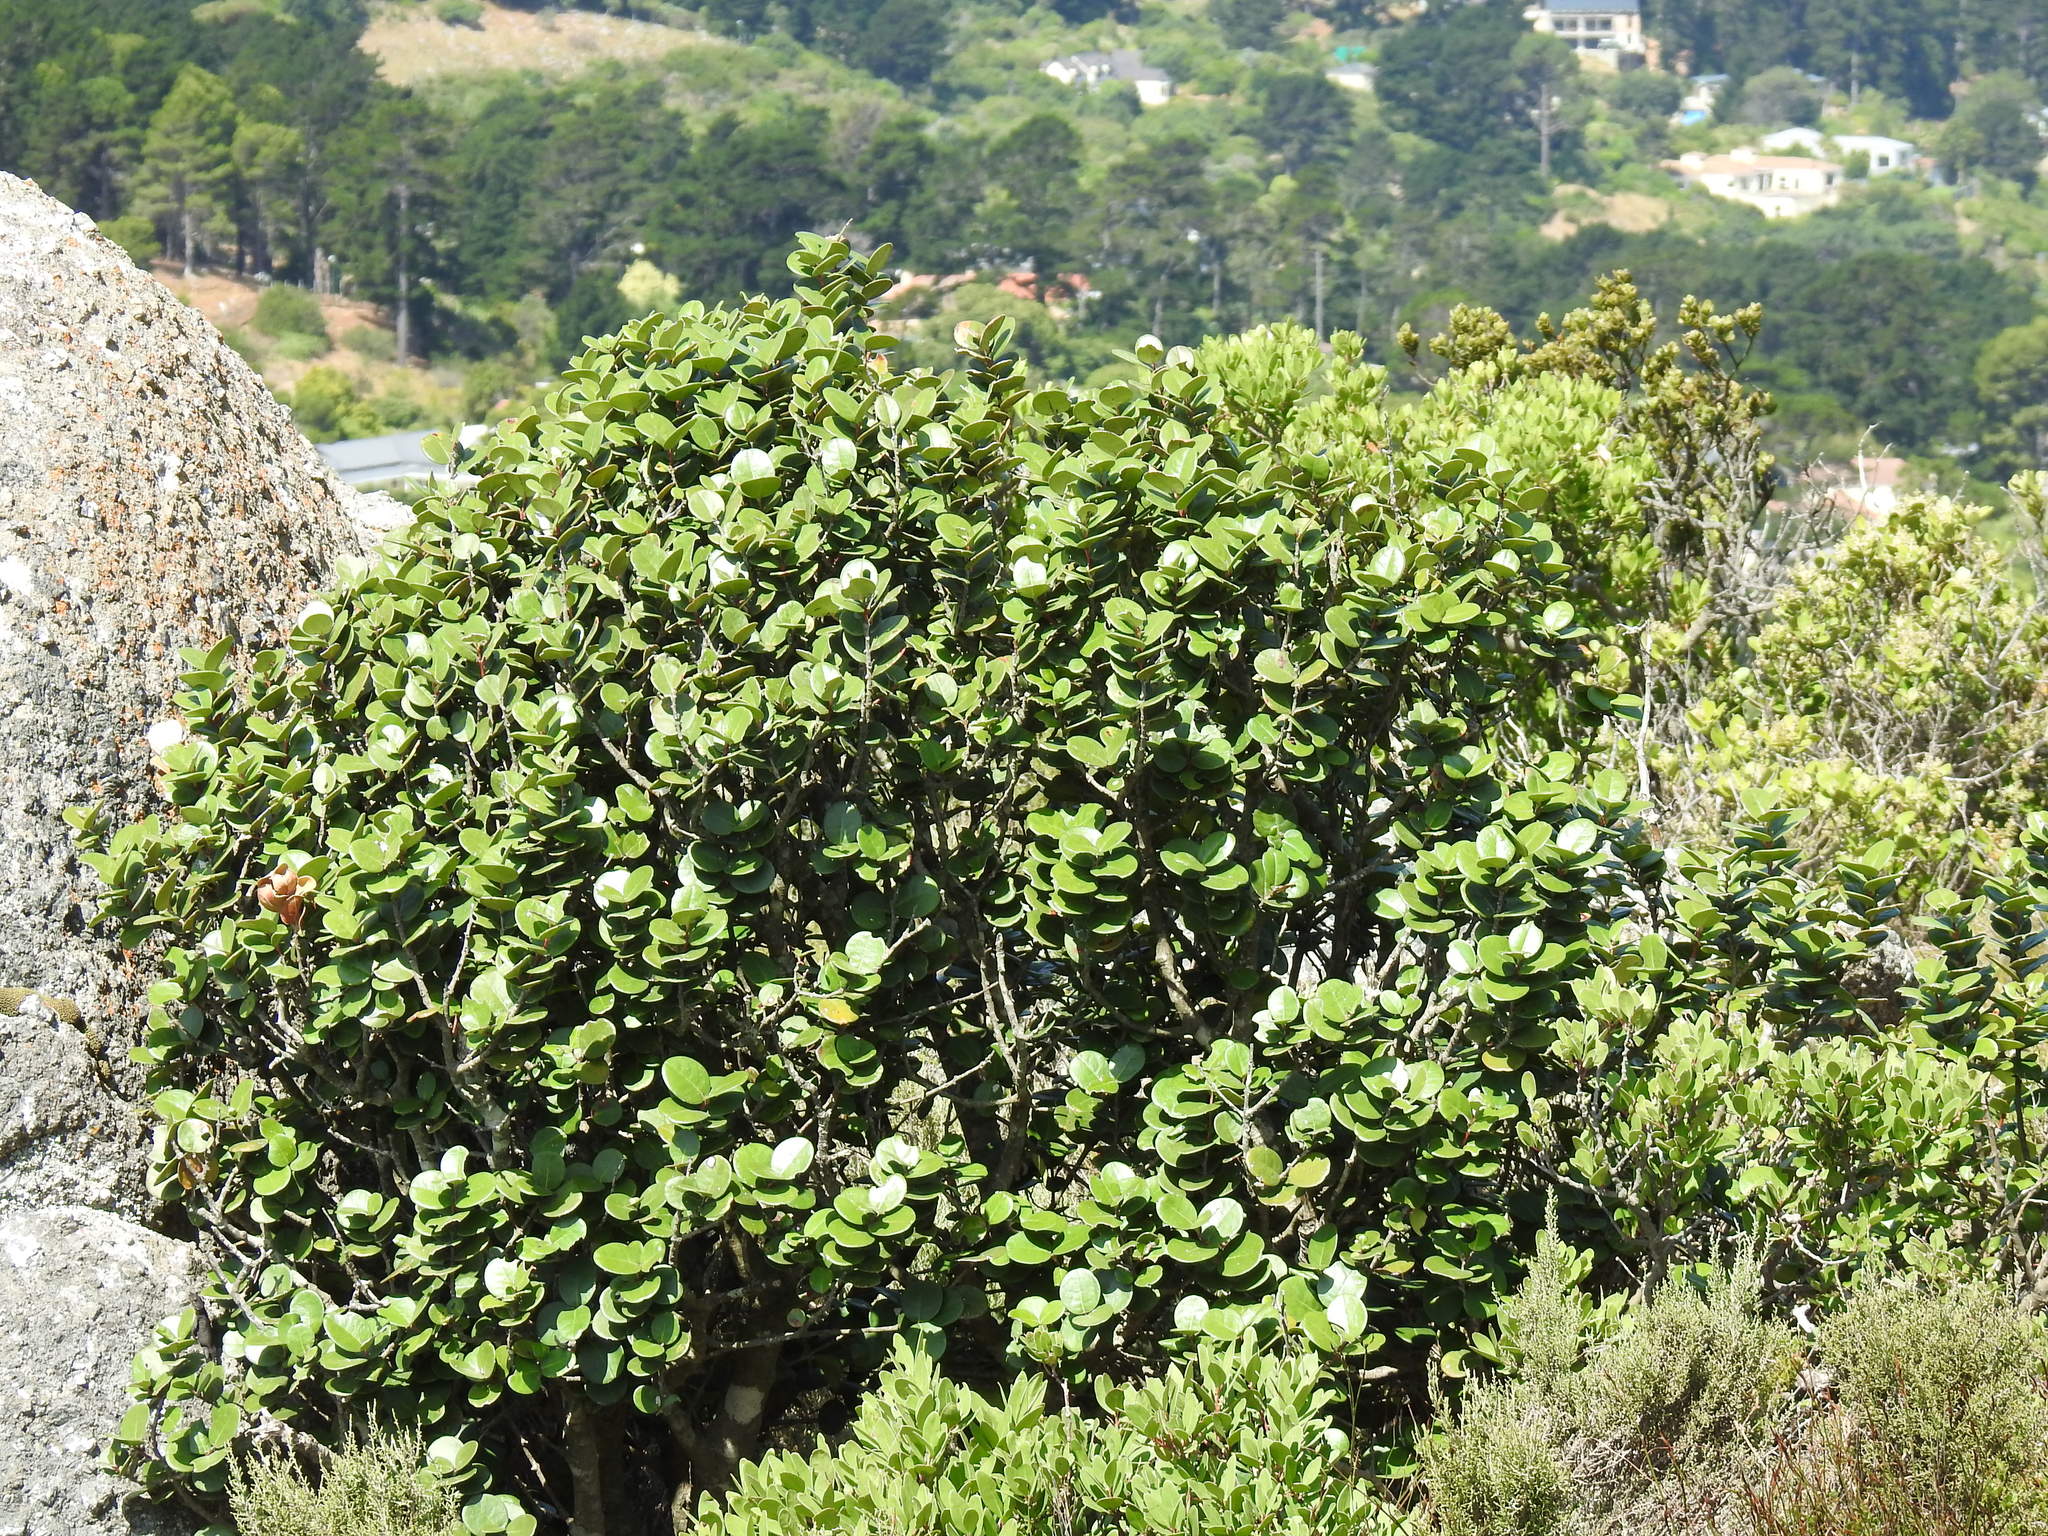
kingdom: Plantae
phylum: Tracheophyta
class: Magnoliopsida
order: Celastrales
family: Celastraceae
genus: Maurocenia
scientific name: Maurocenia frangula
